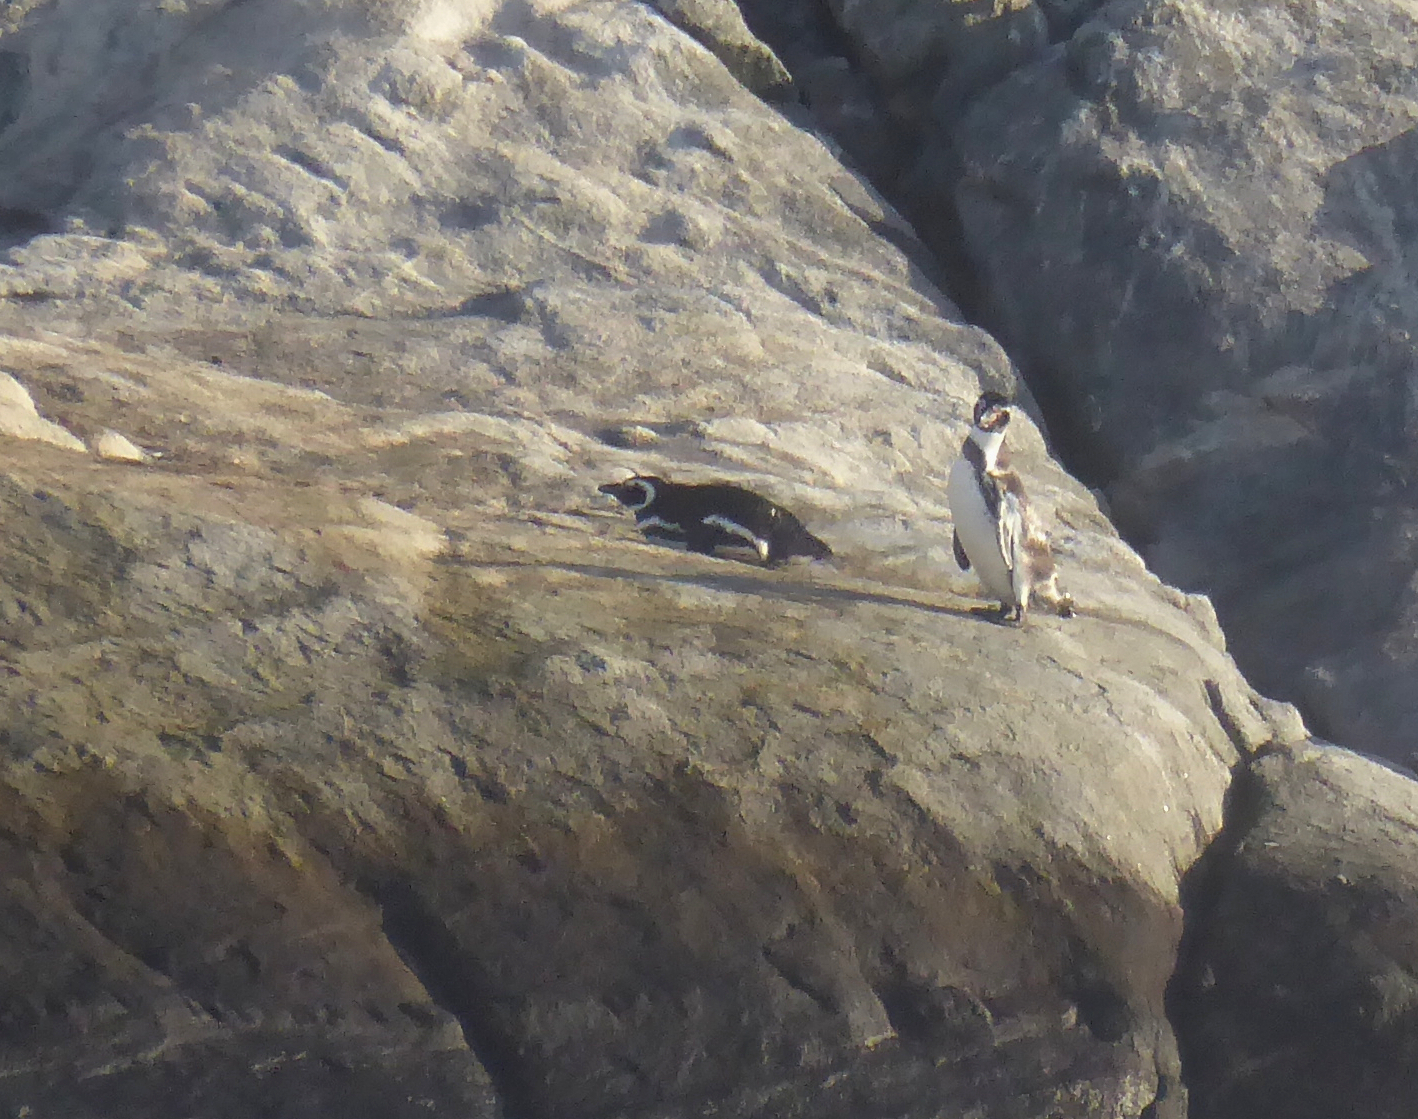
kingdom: Animalia
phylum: Chordata
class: Aves
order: Sphenisciformes
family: Spheniscidae
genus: Spheniscus
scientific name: Spheniscus magellanicus
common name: Magellanic penguin
